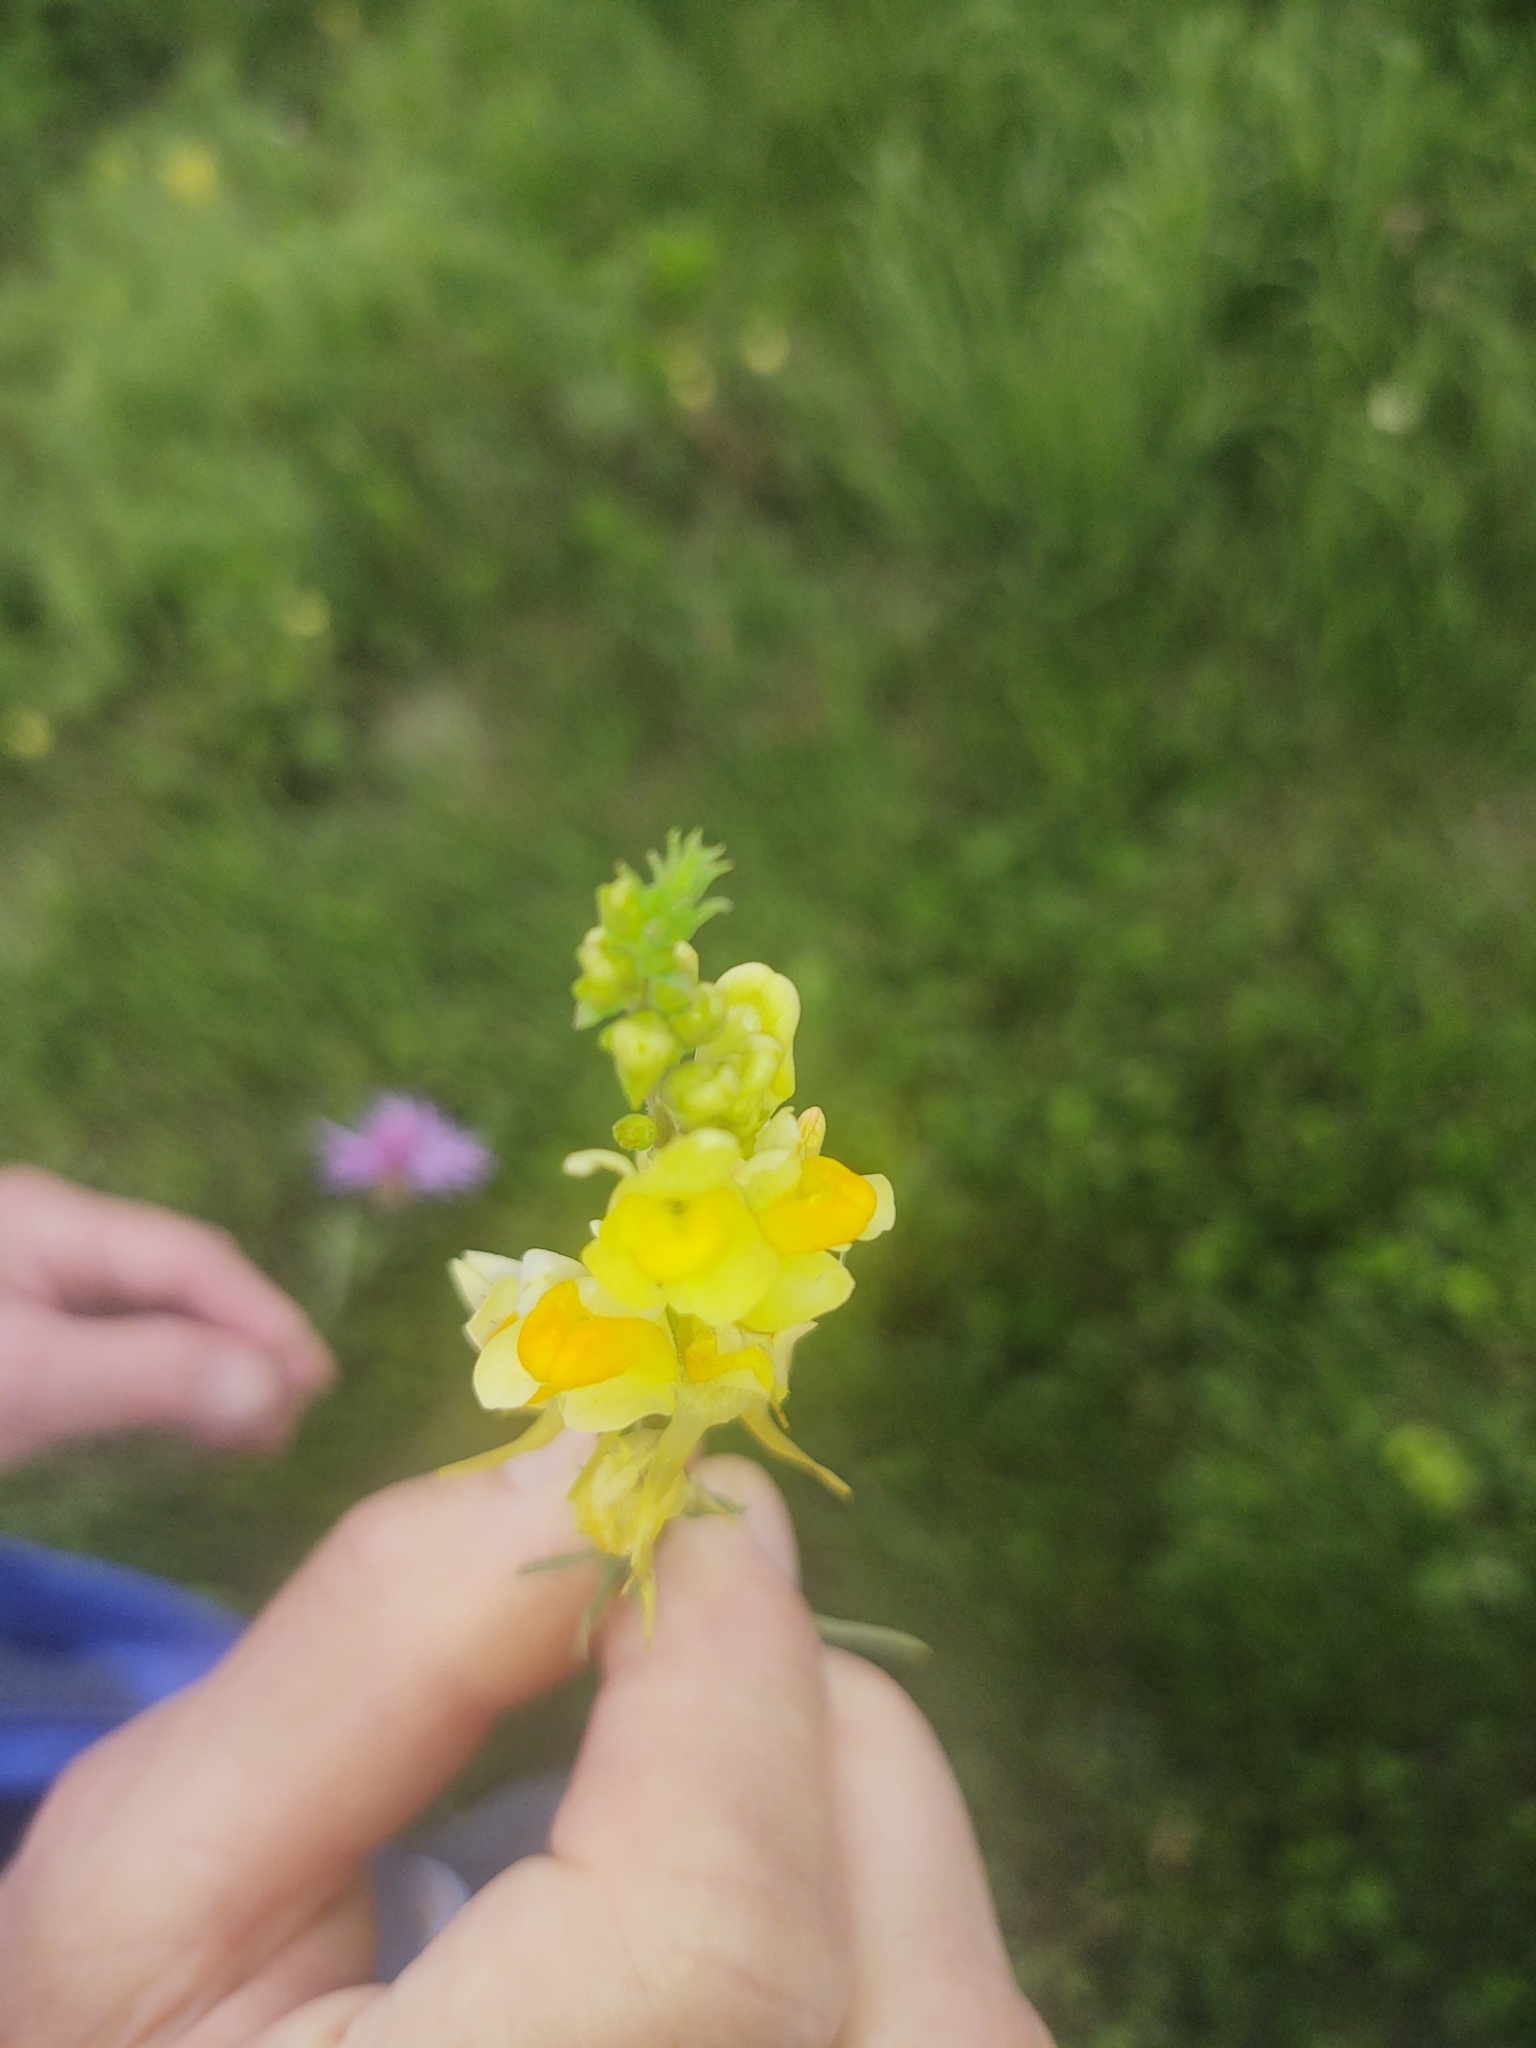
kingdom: Plantae
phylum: Tracheophyta
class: Magnoliopsida
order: Lamiales
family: Plantaginaceae
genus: Linaria
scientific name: Linaria vulgaris
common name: Butter and eggs
